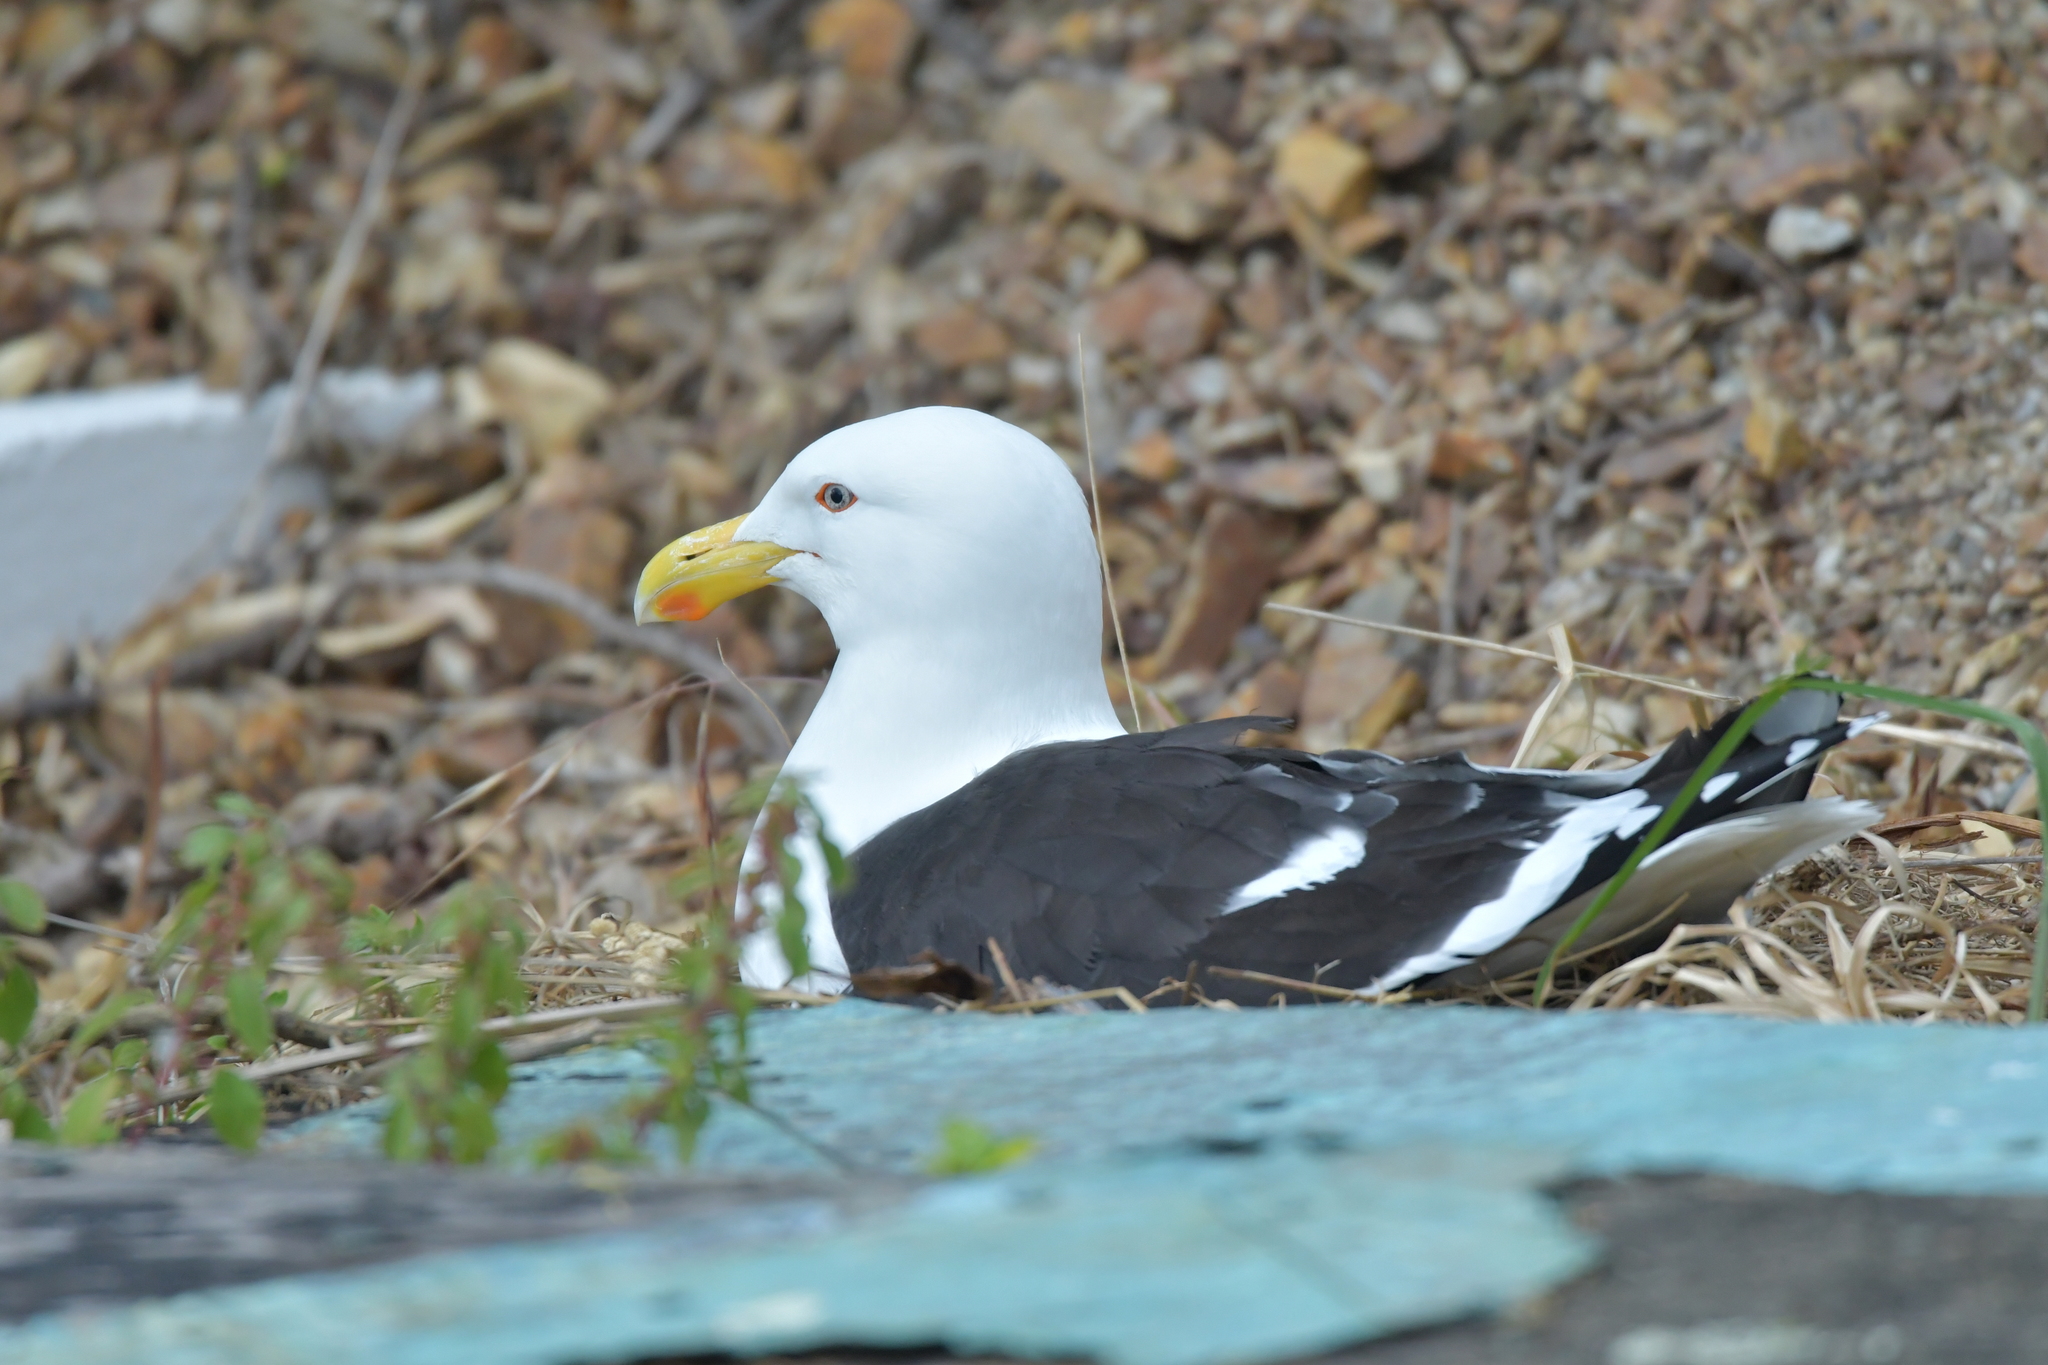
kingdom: Animalia
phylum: Chordata
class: Aves
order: Charadriiformes
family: Laridae
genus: Larus
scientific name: Larus dominicanus
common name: Kelp gull
